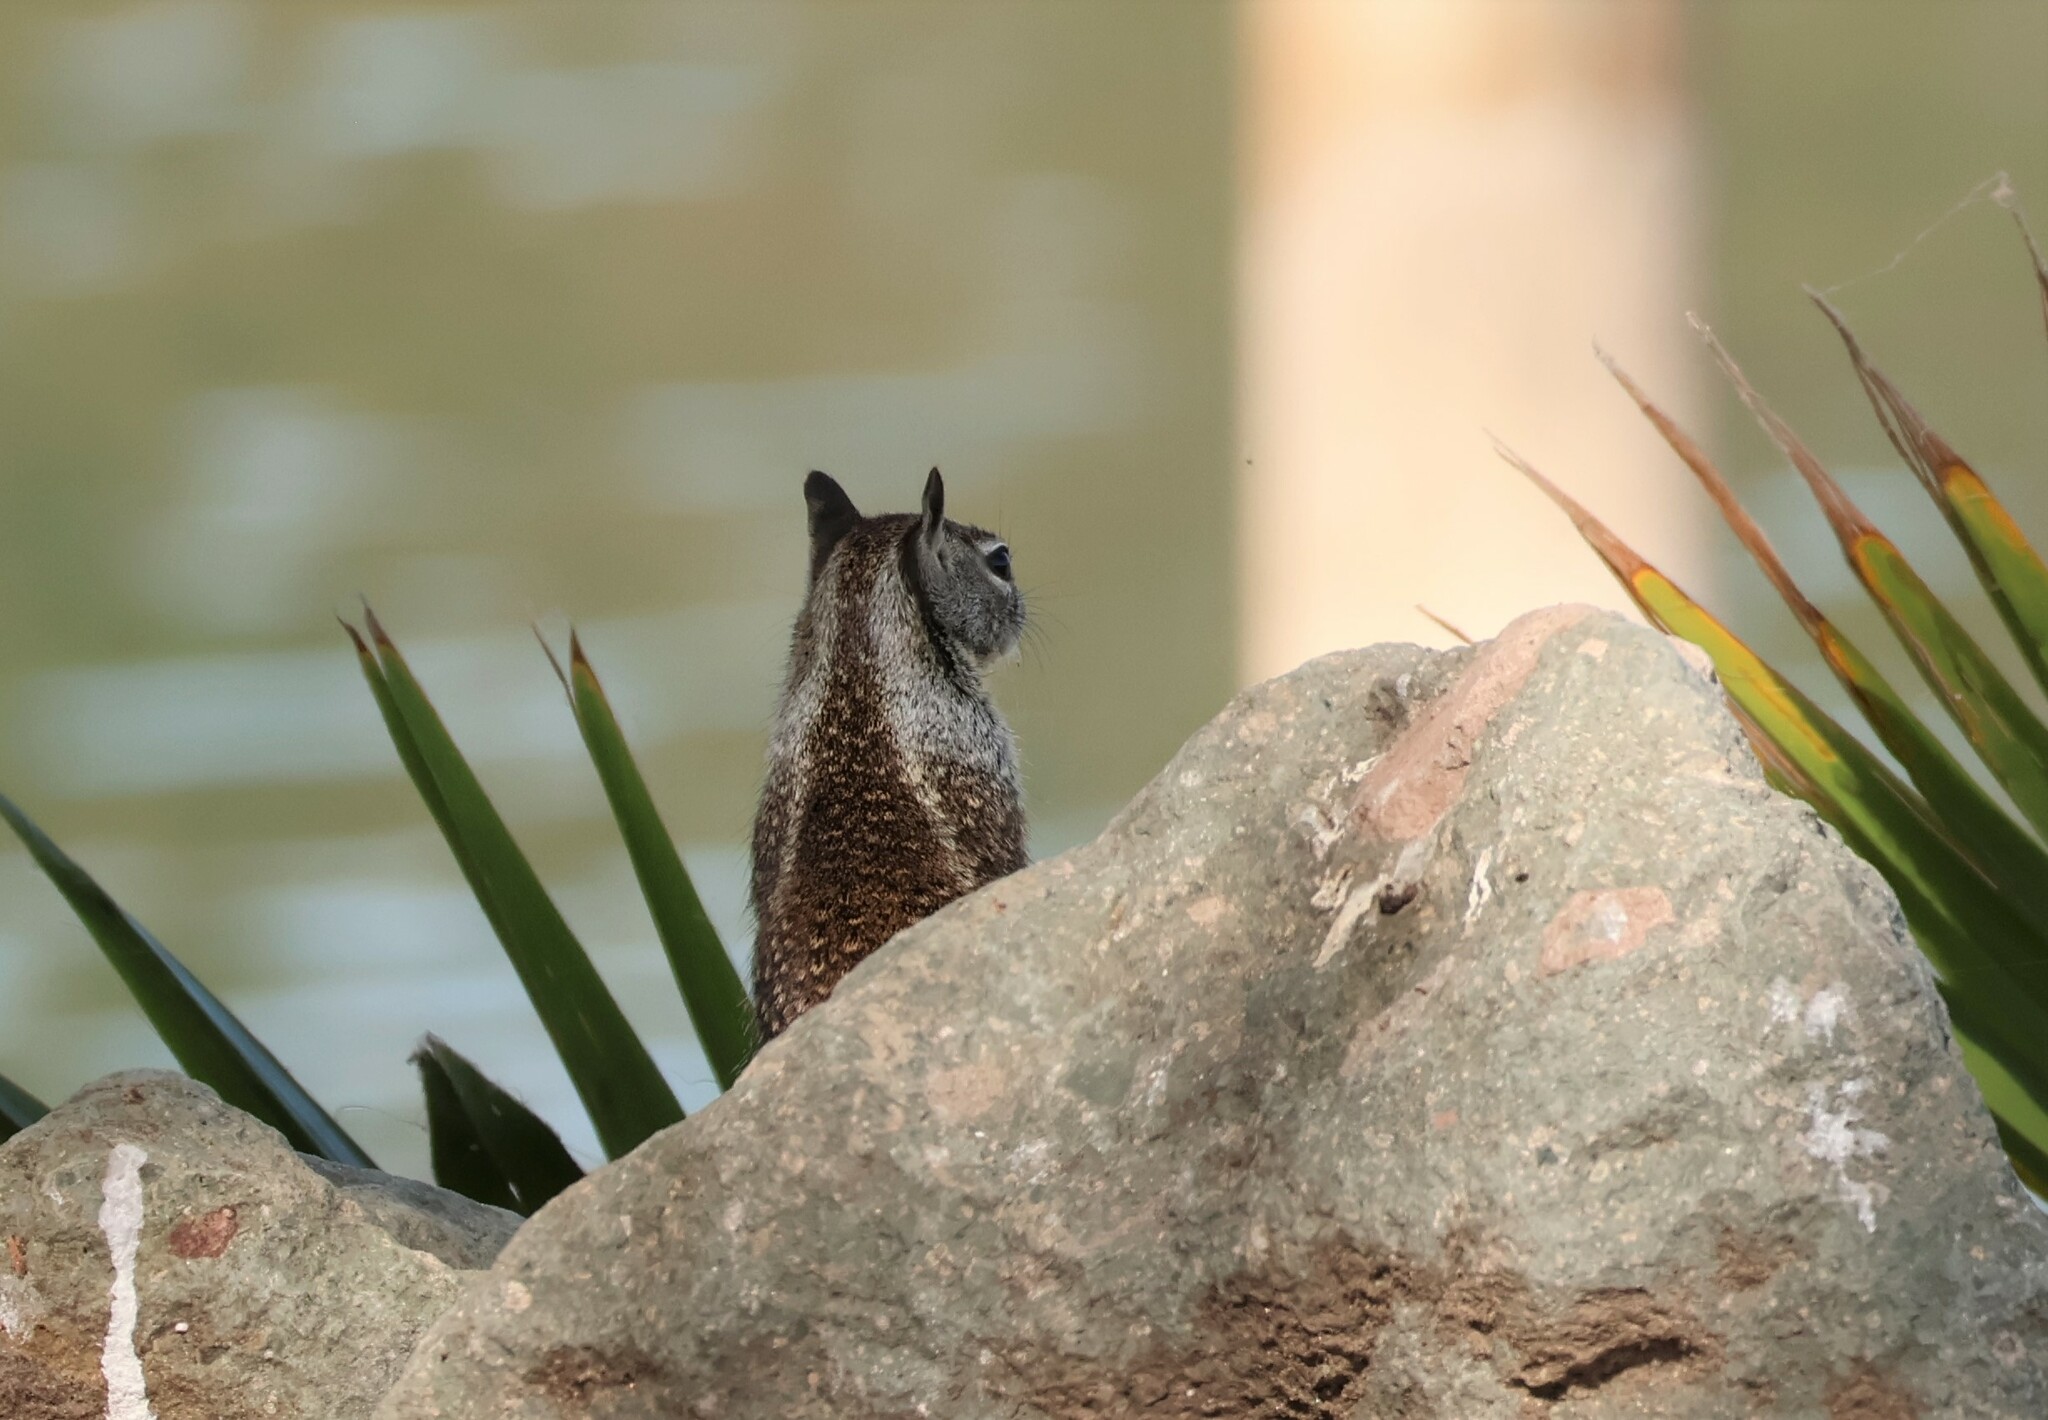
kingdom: Animalia
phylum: Chordata
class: Mammalia
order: Rodentia
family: Sciuridae
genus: Otospermophilus
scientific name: Otospermophilus beecheyi
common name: California ground squirrel
